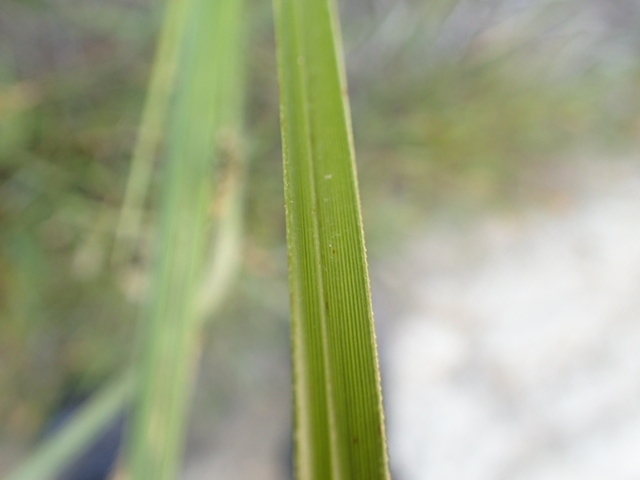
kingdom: Plantae
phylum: Tracheophyta
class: Liliopsida
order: Poales
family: Poaceae
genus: Cortaderia
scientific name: Cortaderia selloana
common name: Uruguayan pampas grass
